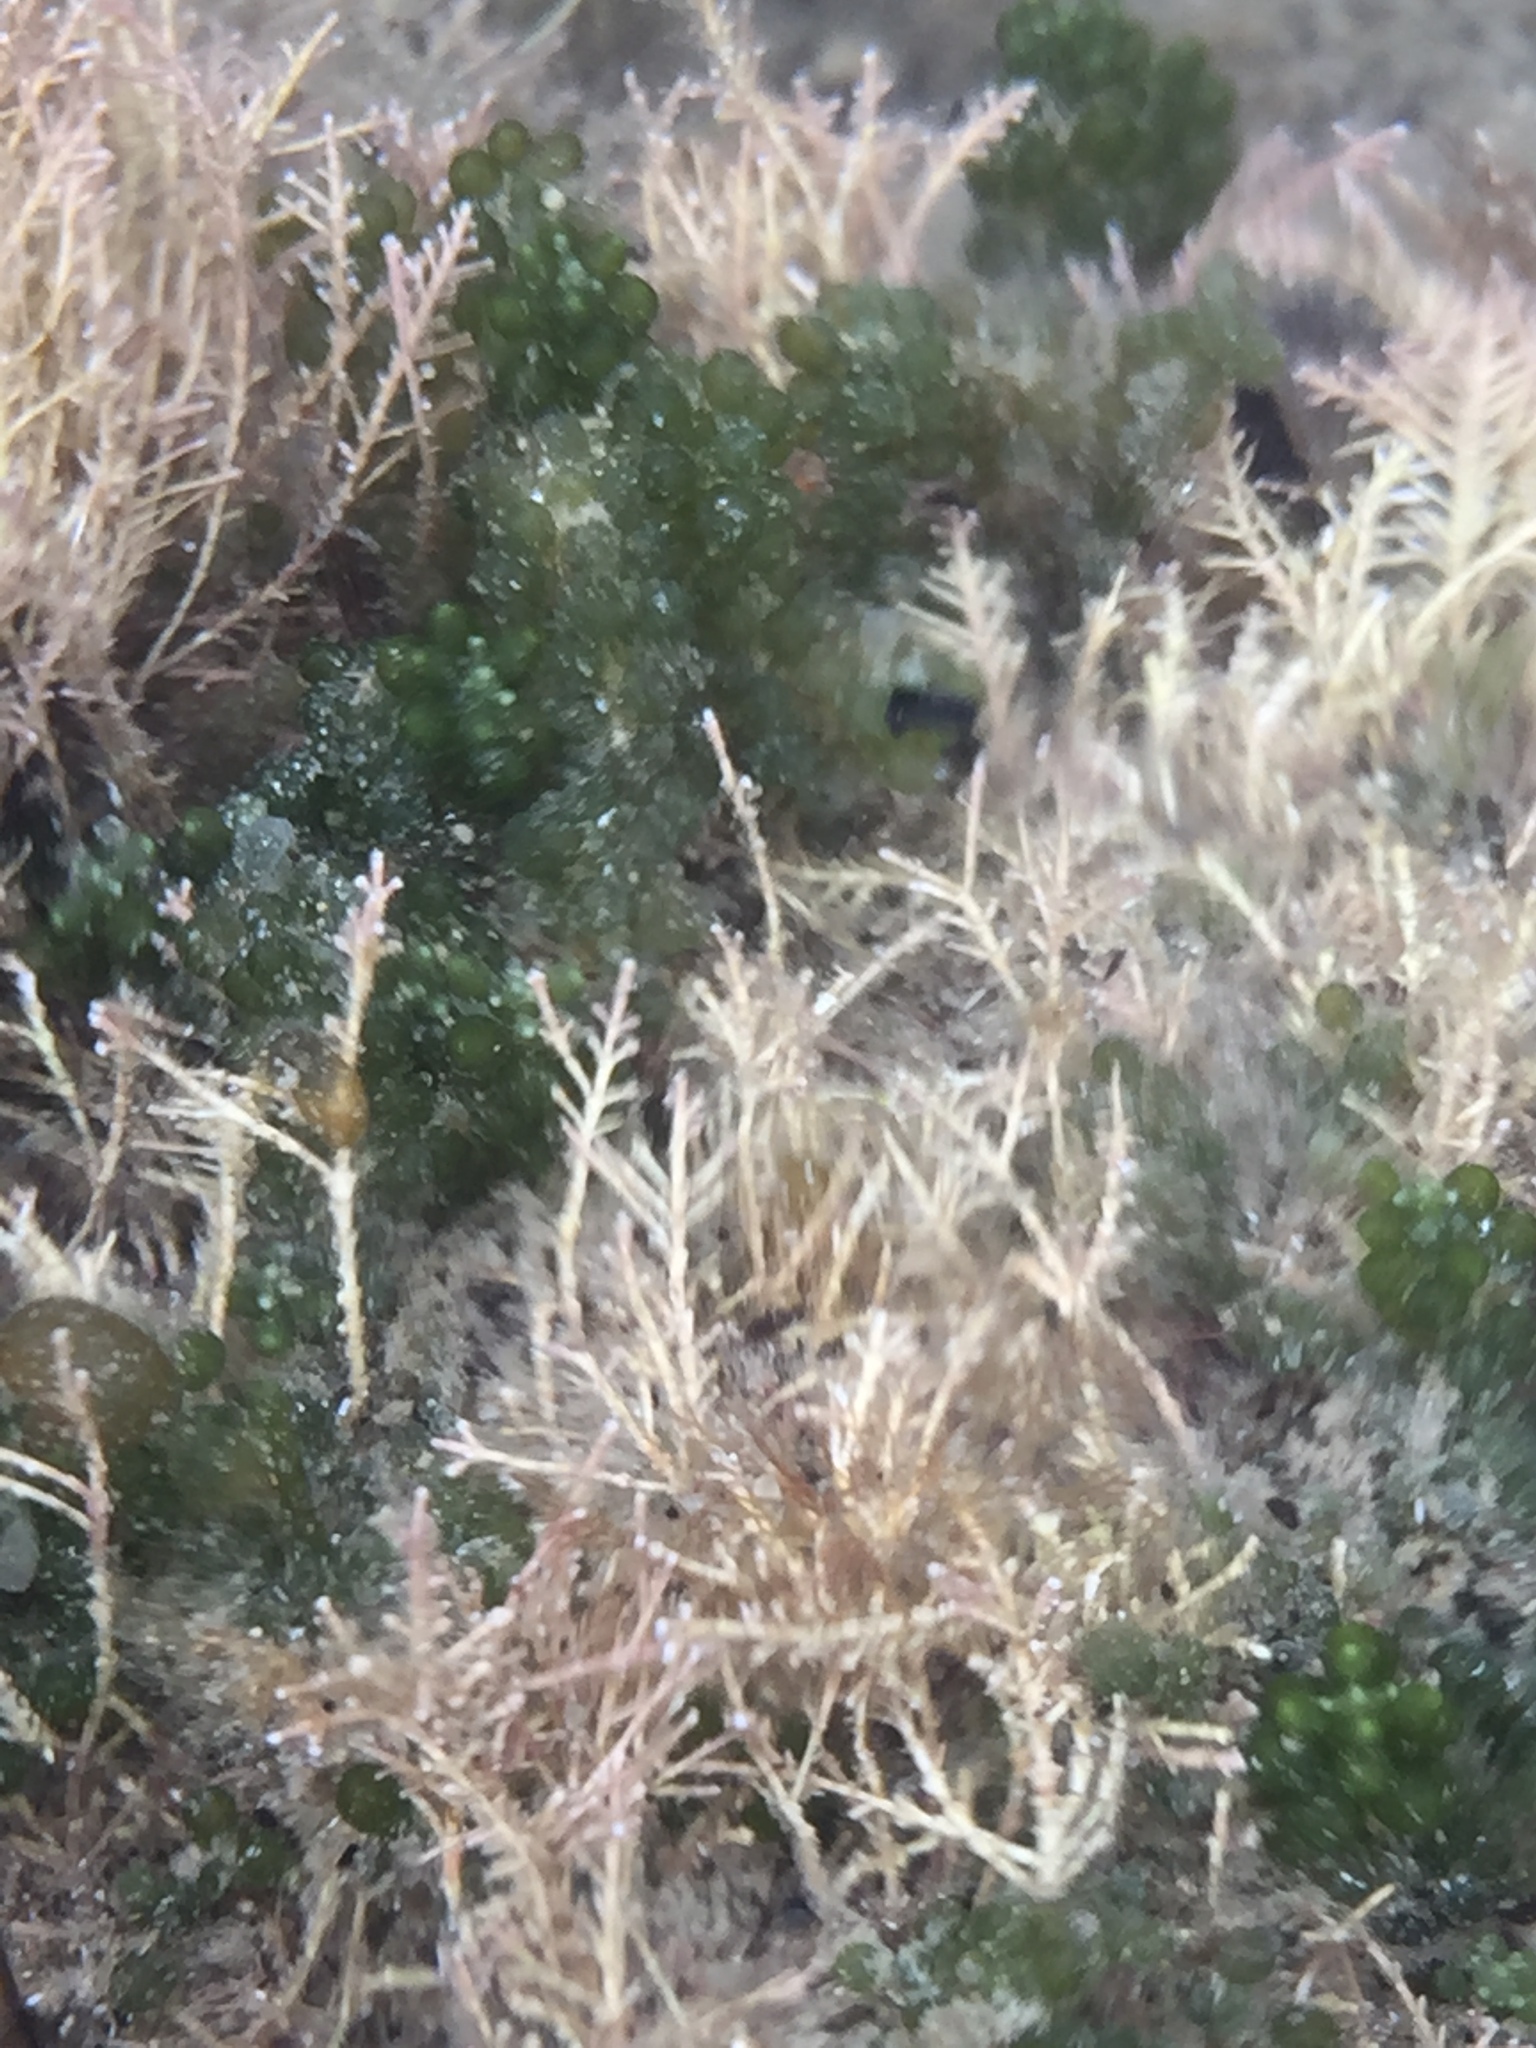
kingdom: Plantae
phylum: Chlorophyta
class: Ulvophyceae
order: Bryopsidales
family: Caulerpaceae
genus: Caulerpa
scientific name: Caulerpa geminata
